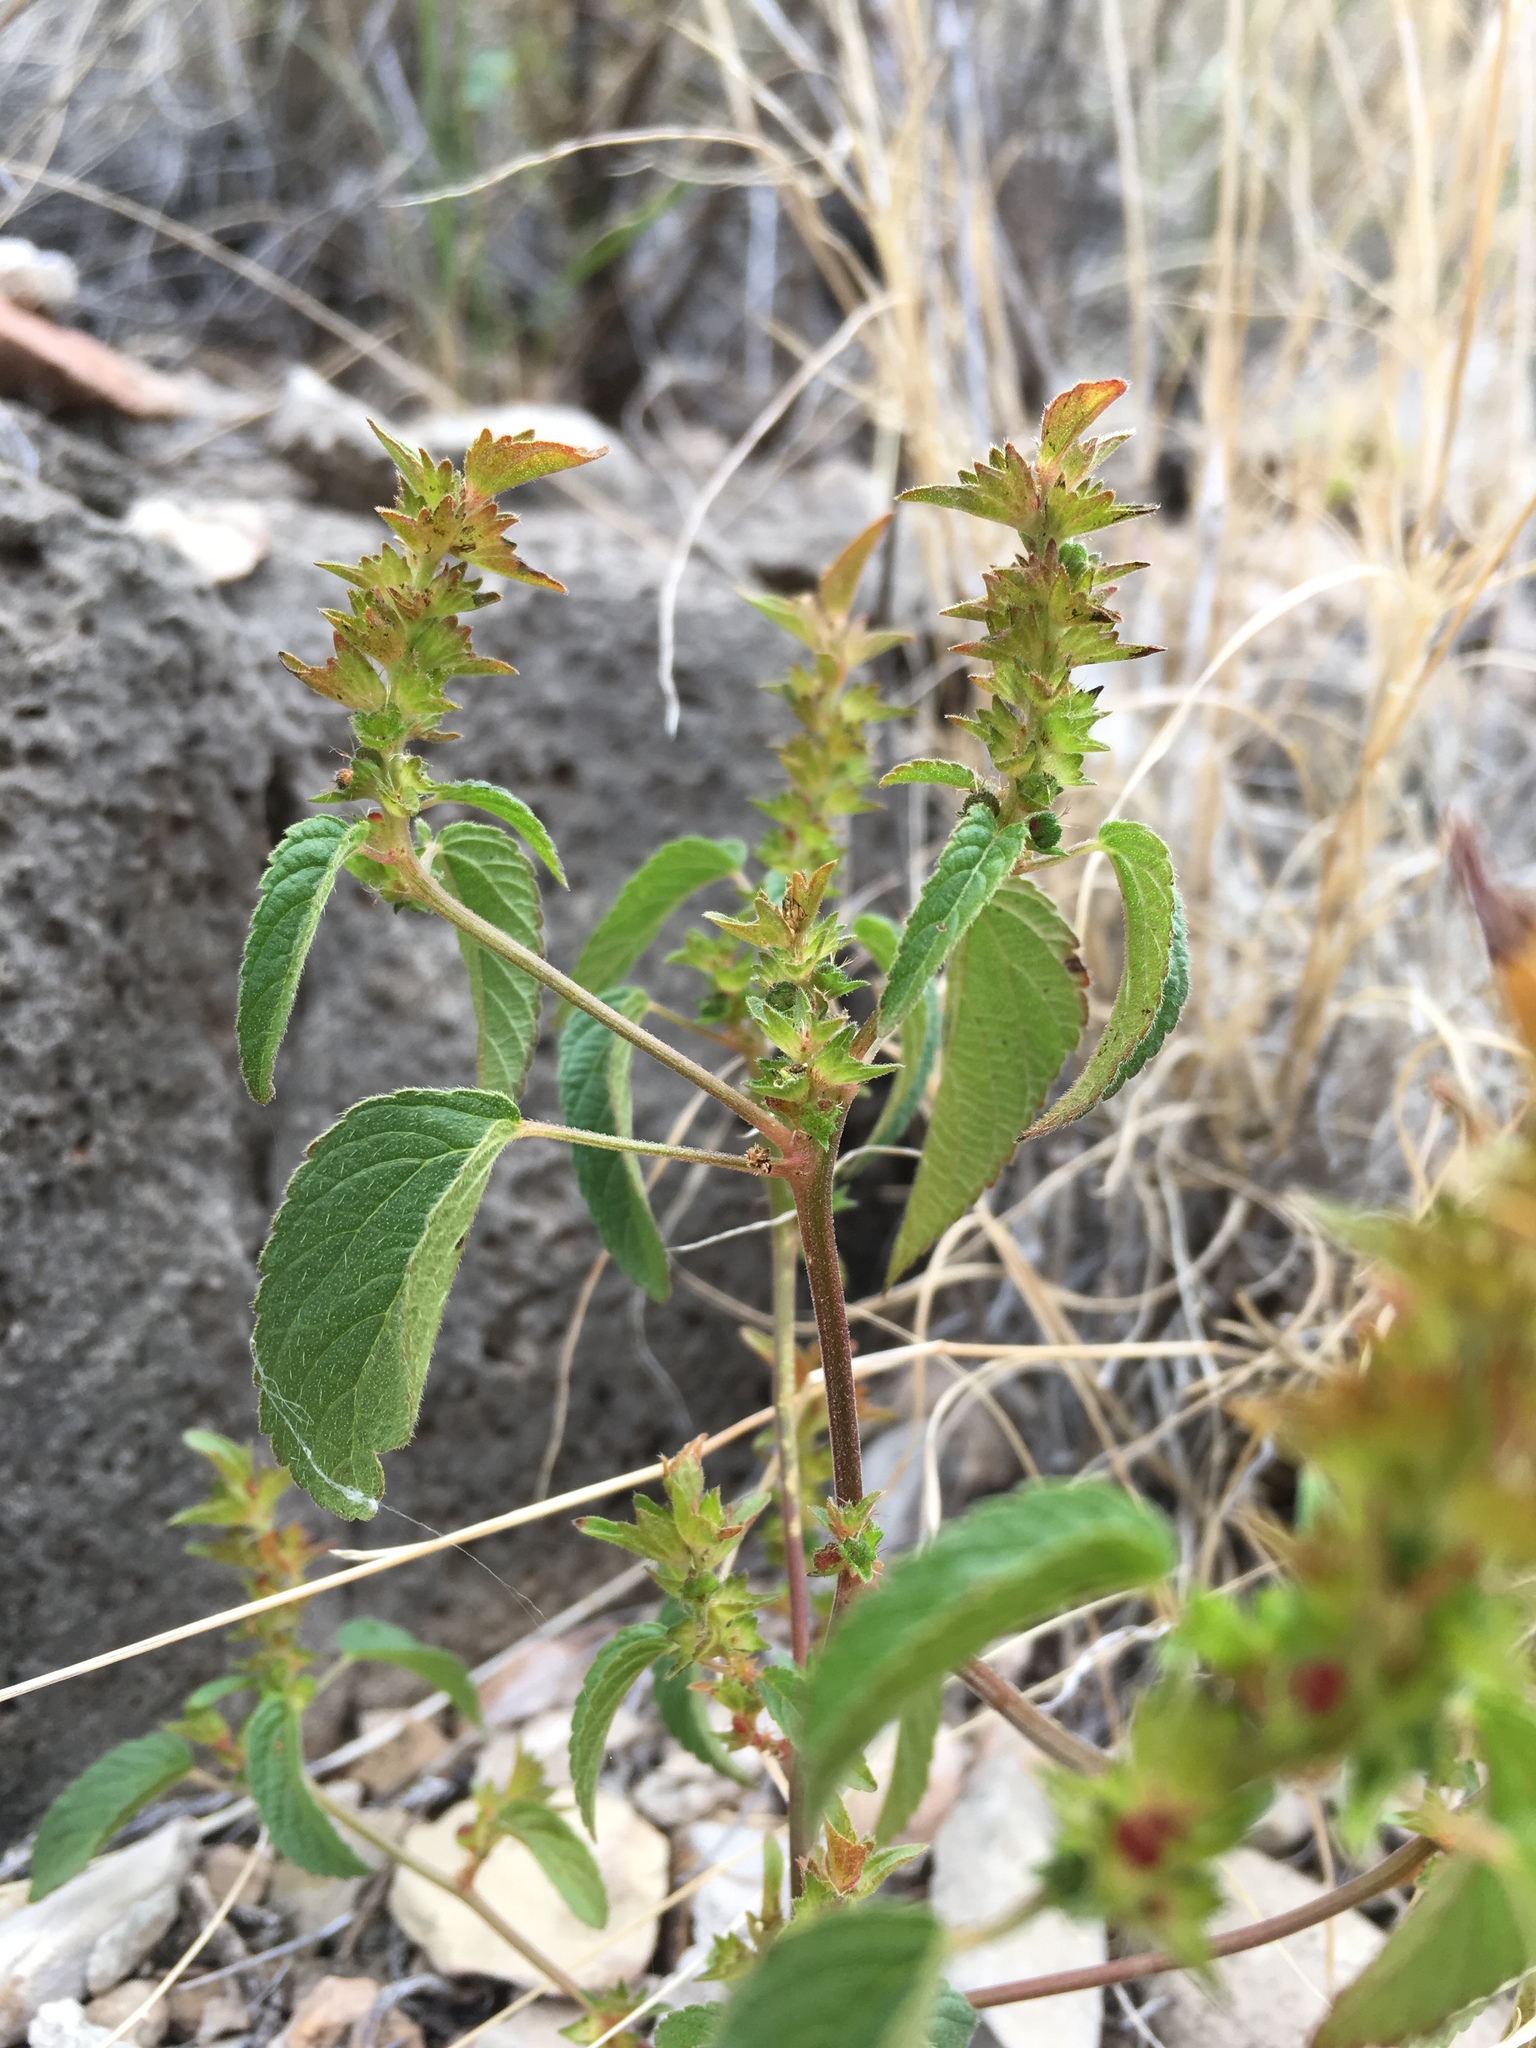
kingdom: Plantae
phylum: Tracheophyta
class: Magnoliopsida
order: Malpighiales
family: Euphorbiaceae
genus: Acalypha
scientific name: Acalypha neomexicana
